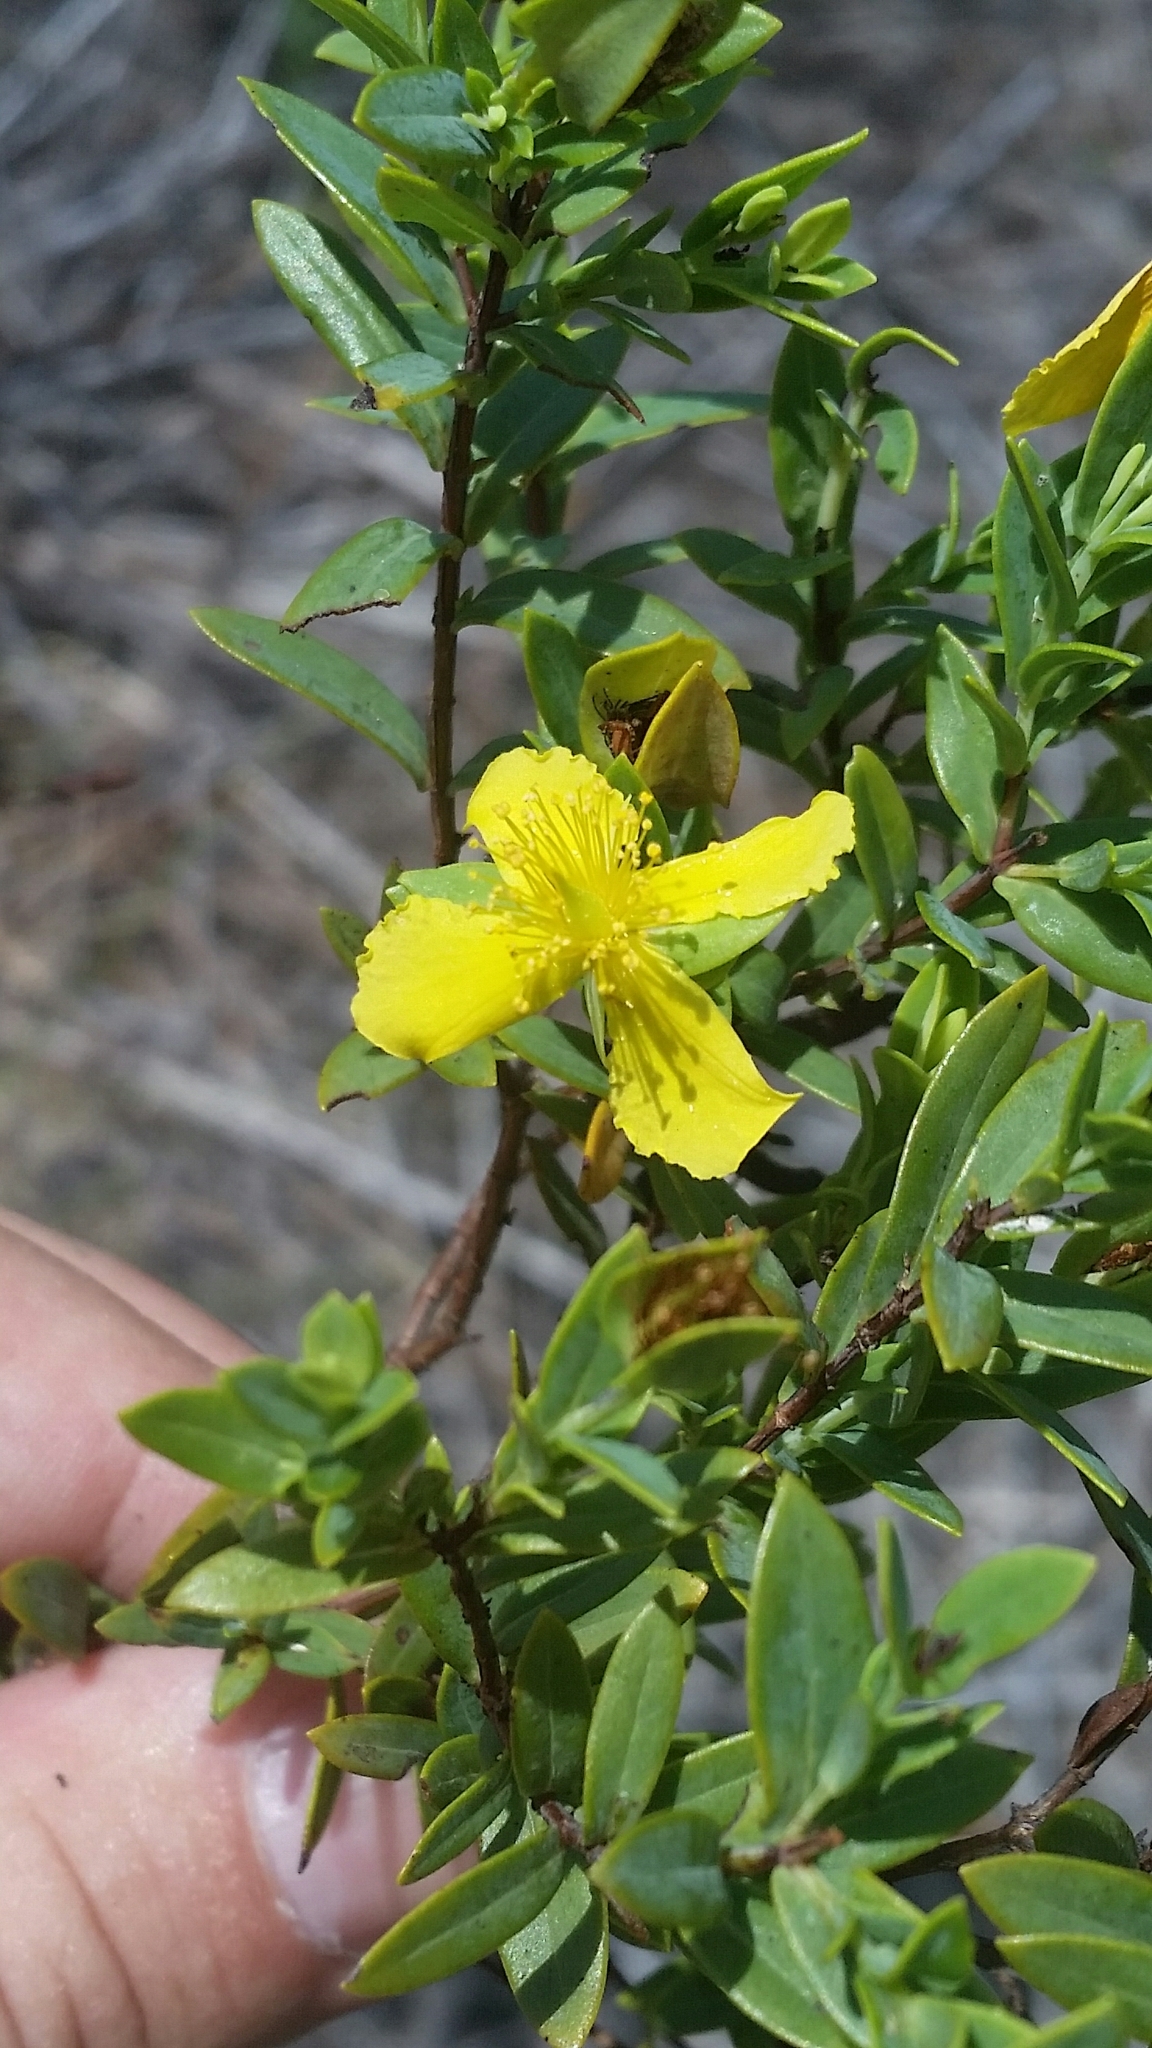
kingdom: Plantae
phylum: Tracheophyta
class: Magnoliopsida
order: Malpighiales
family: Hypericaceae
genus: Hypericum
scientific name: Hypericum edisonianum
